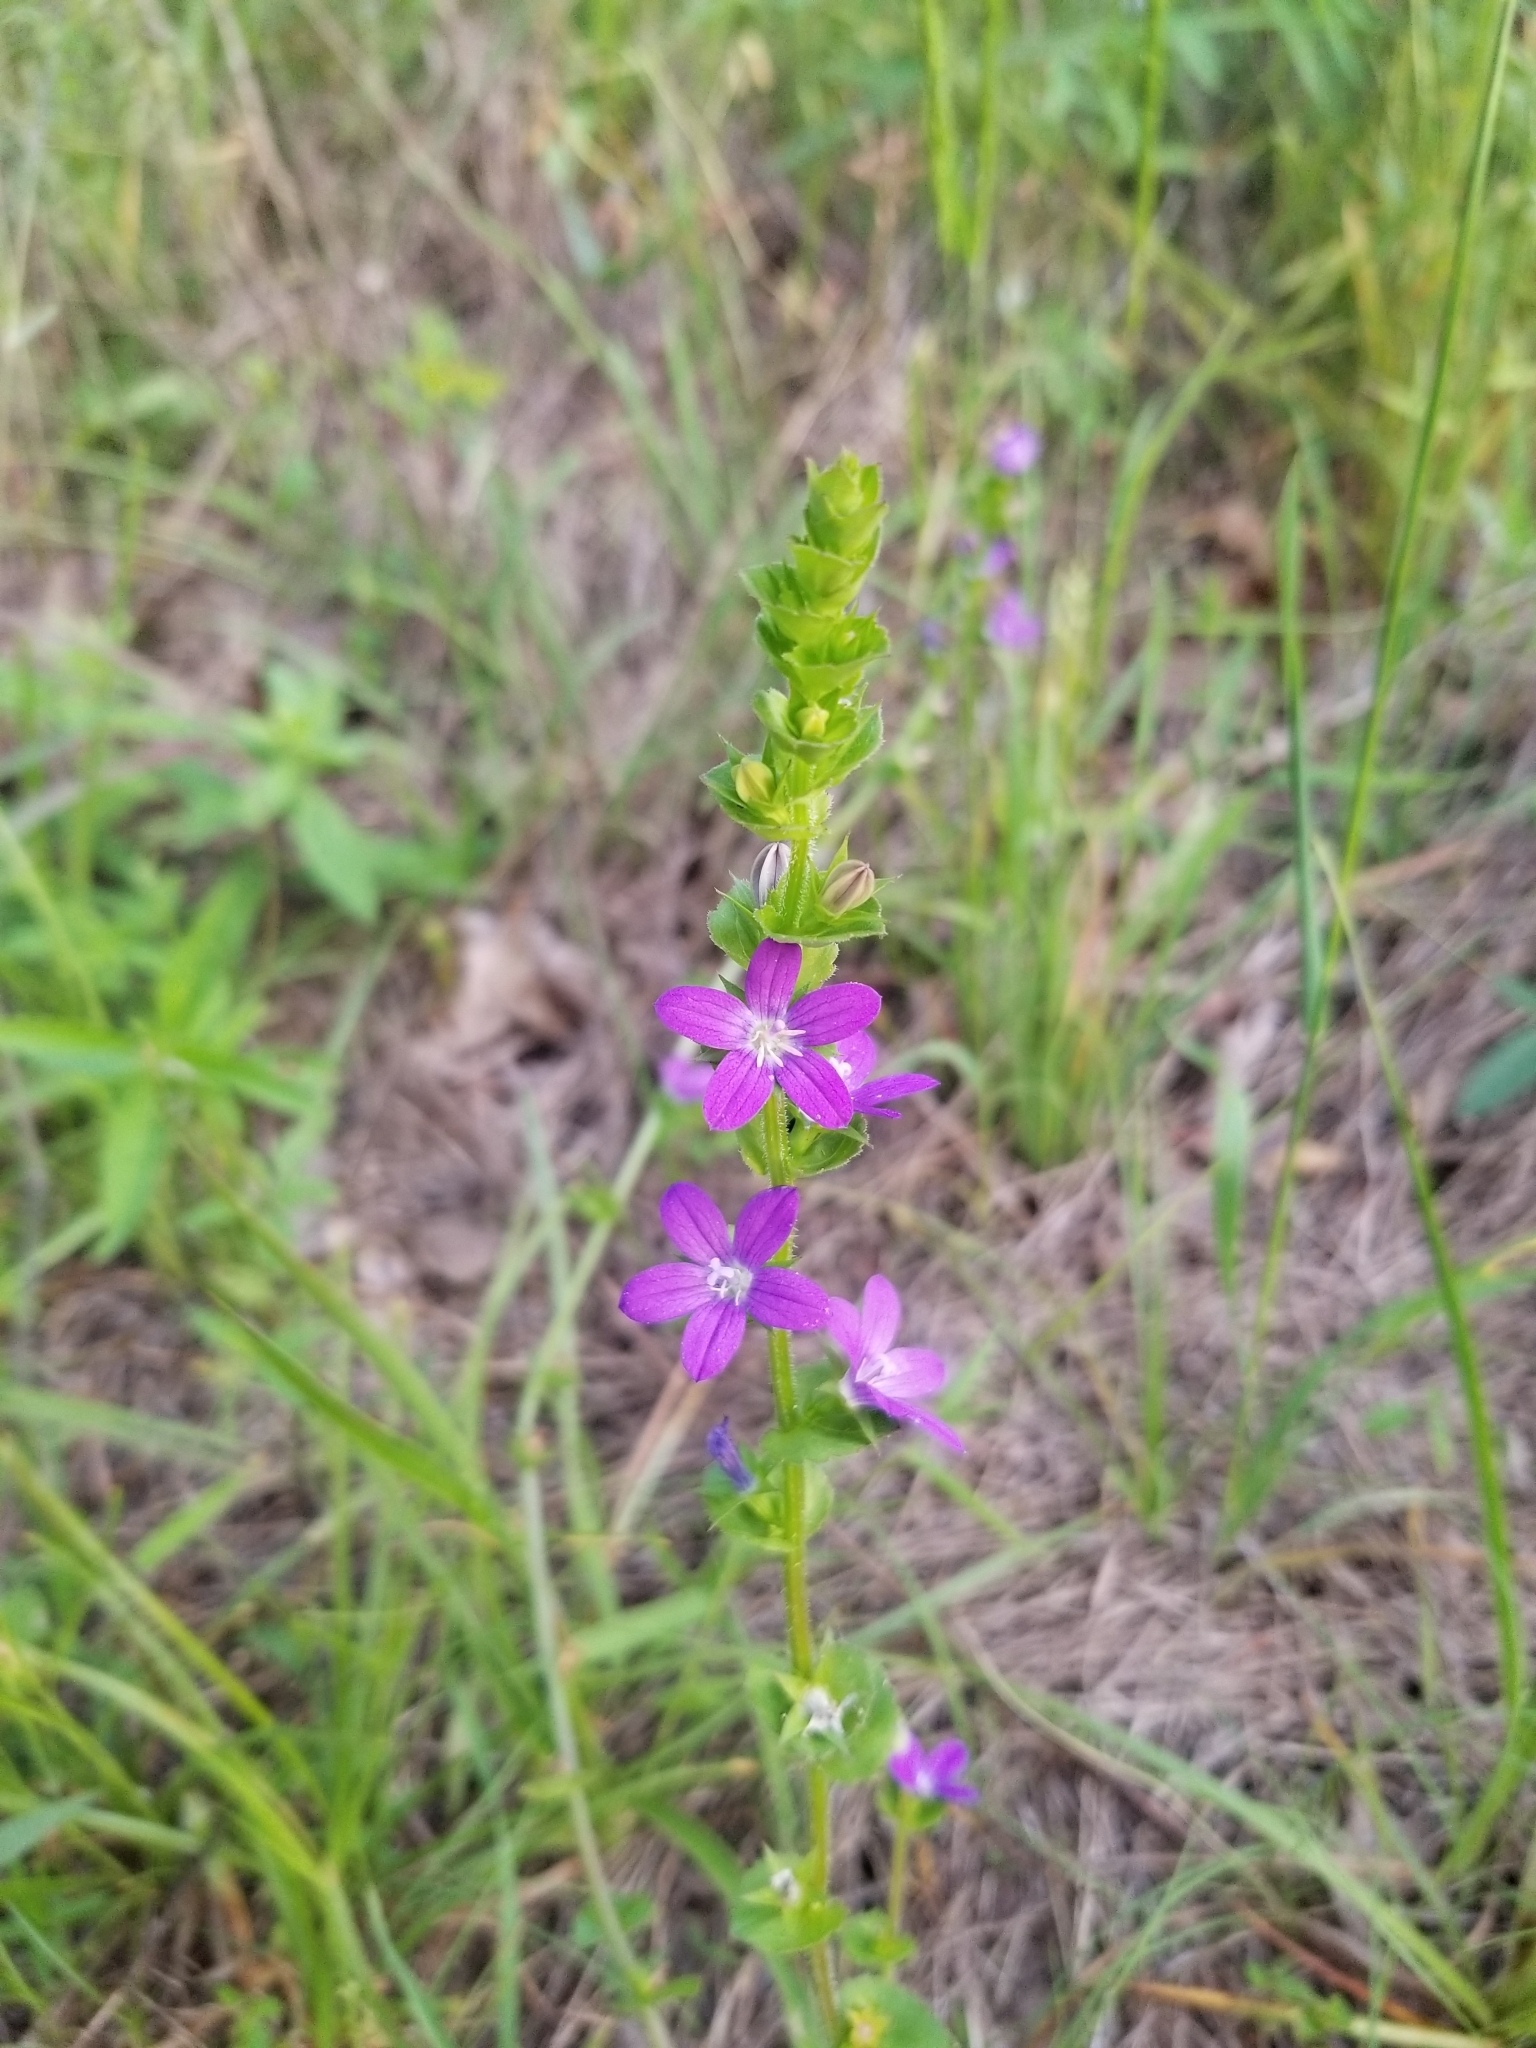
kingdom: Plantae
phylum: Tracheophyta
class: Magnoliopsida
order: Asterales
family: Campanulaceae
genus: Triodanis
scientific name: Triodanis perfoliata
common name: Clasping venus' looking-glass
